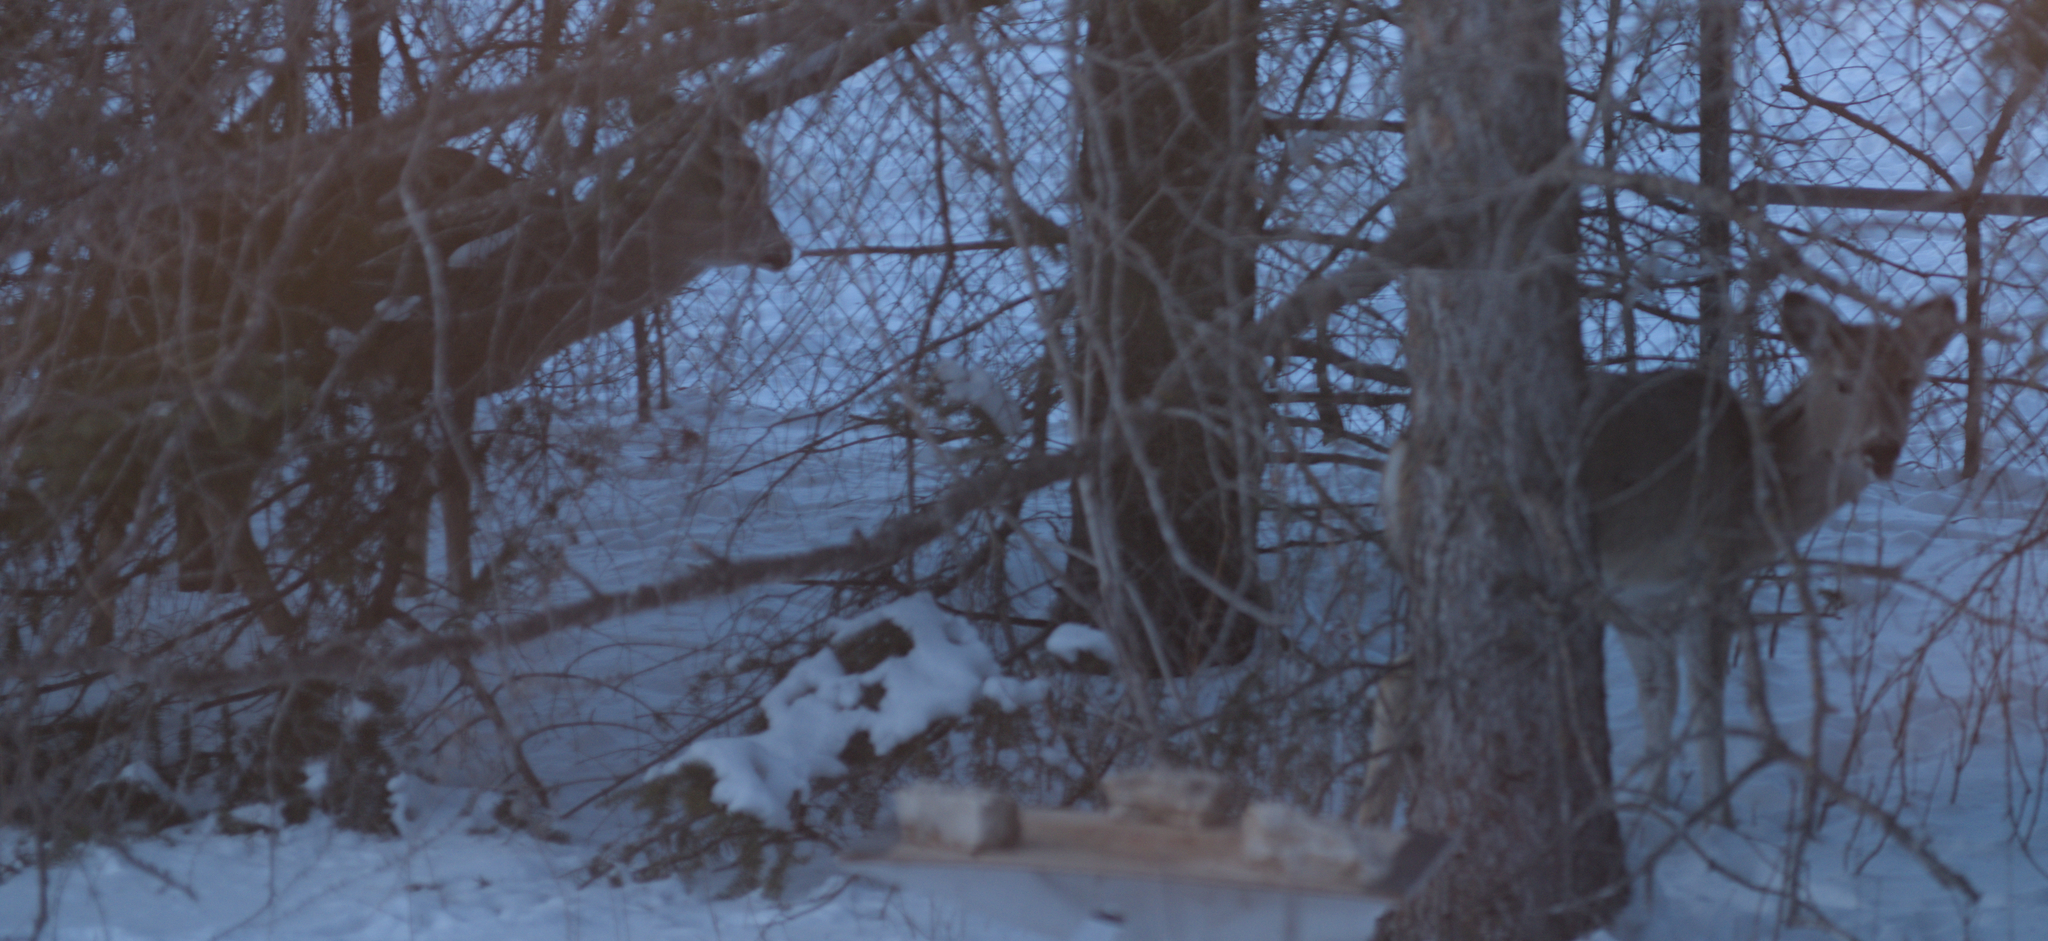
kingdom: Animalia
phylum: Chordata
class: Mammalia
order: Artiodactyla
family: Cervidae
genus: Odocoileus
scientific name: Odocoileus virginianus
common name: White-tailed deer
